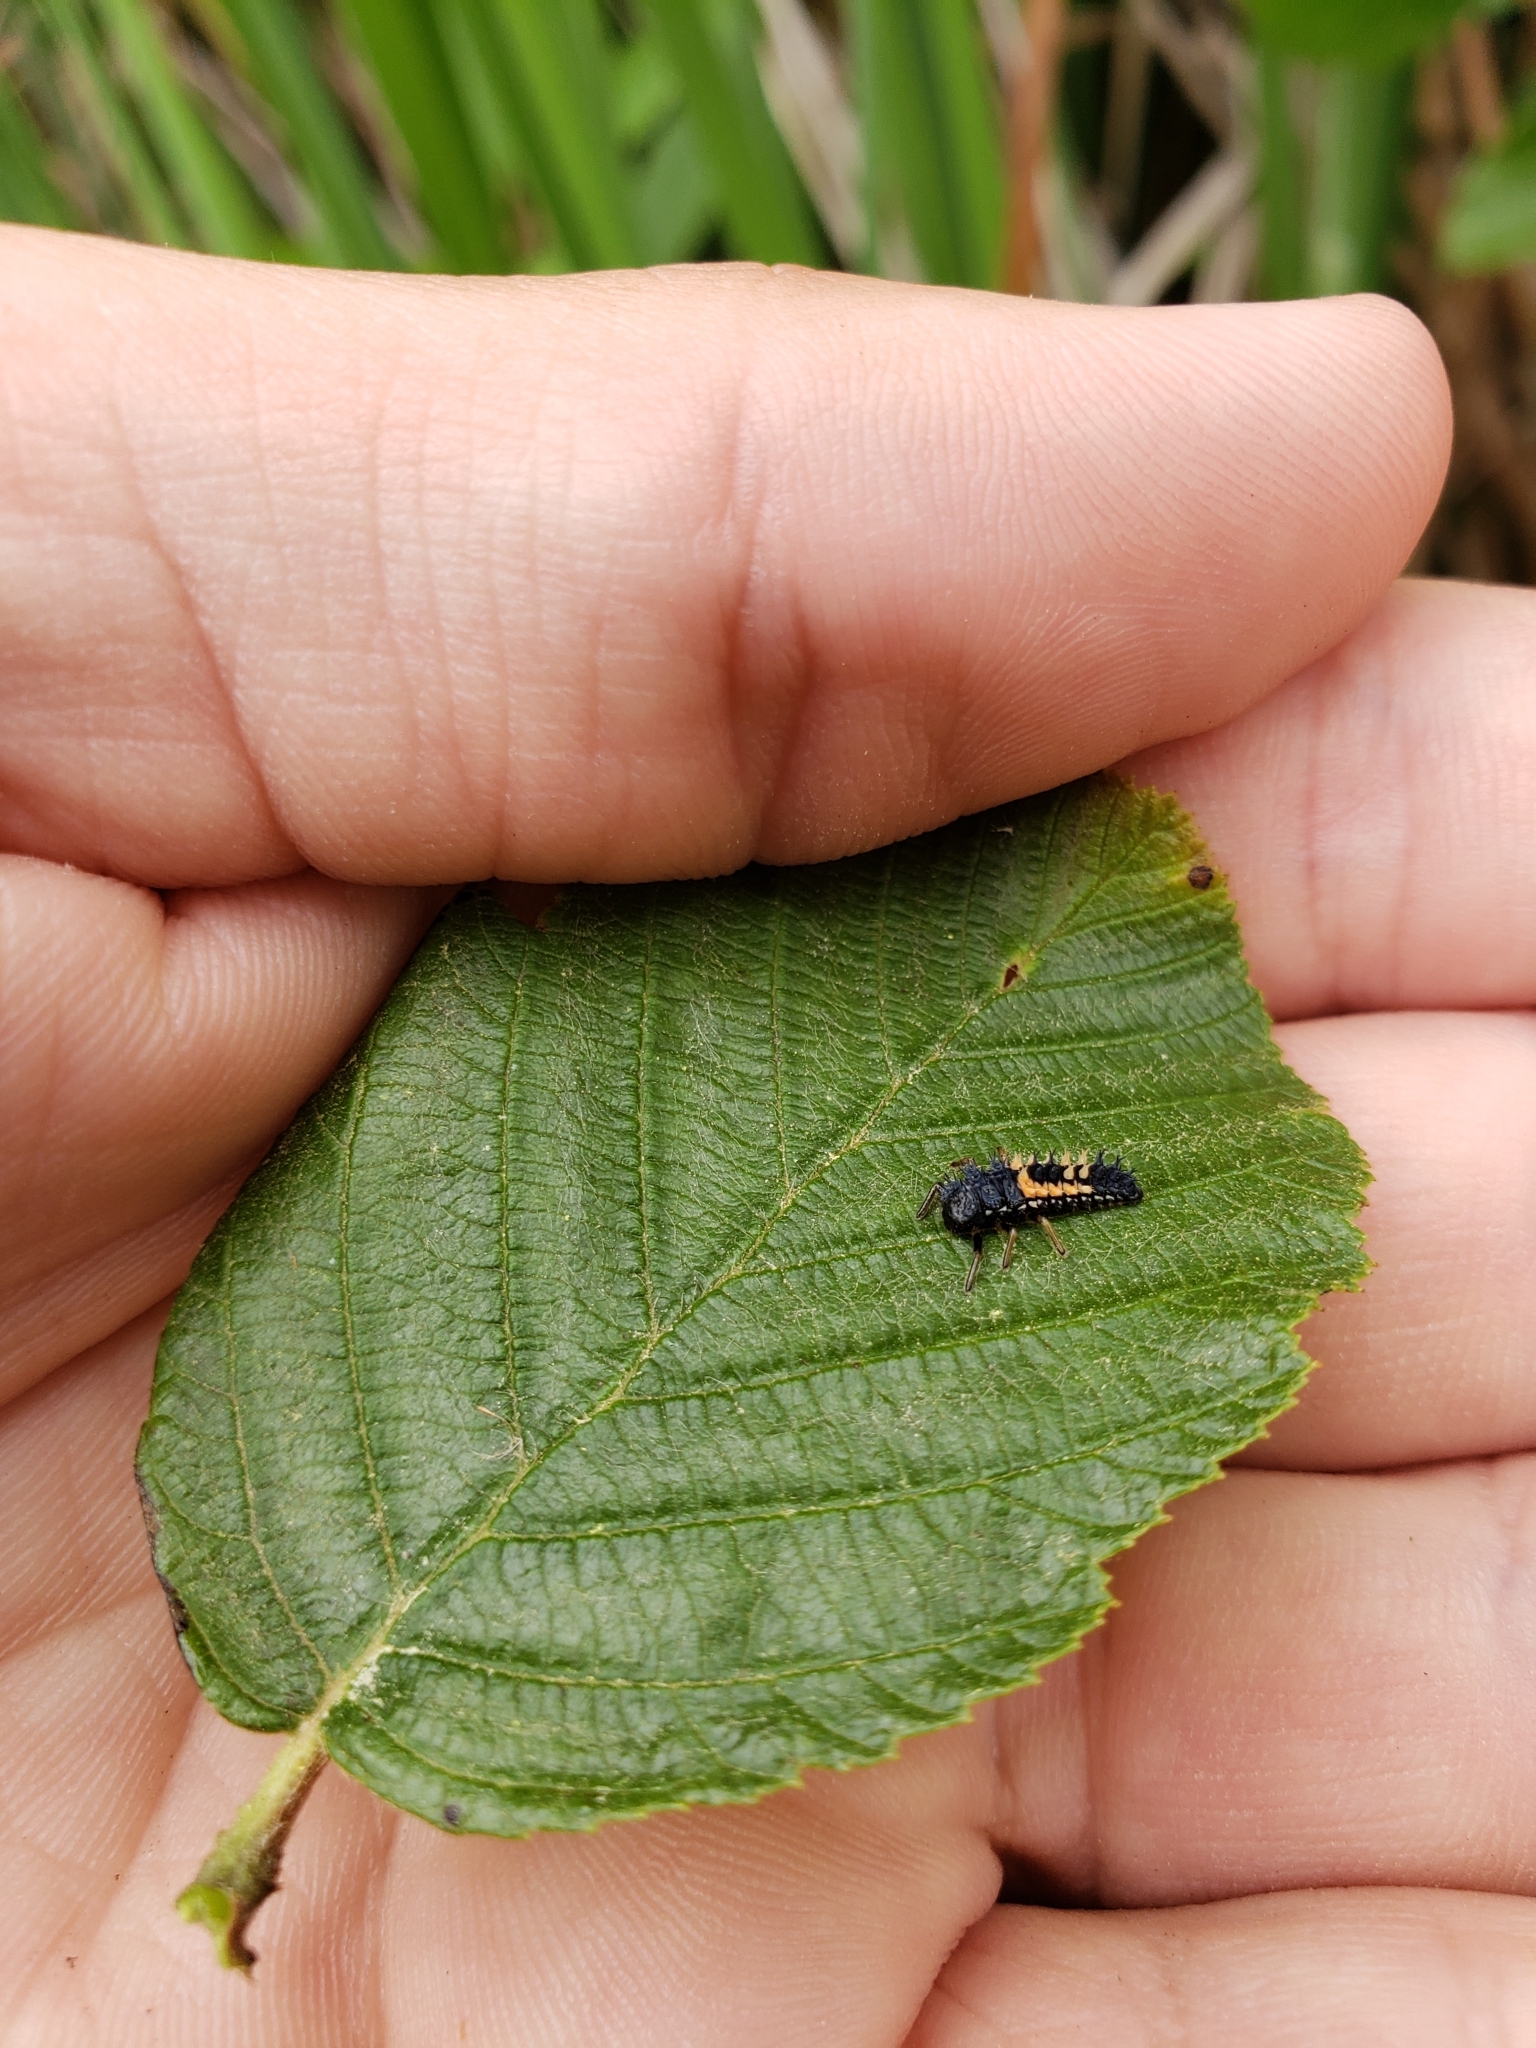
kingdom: Animalia
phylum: Arthropoda
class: Insecta
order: Coleoptera
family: Coccinellidae
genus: Harmonia
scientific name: Harmonia axyridis
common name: Harlequin ladybird
